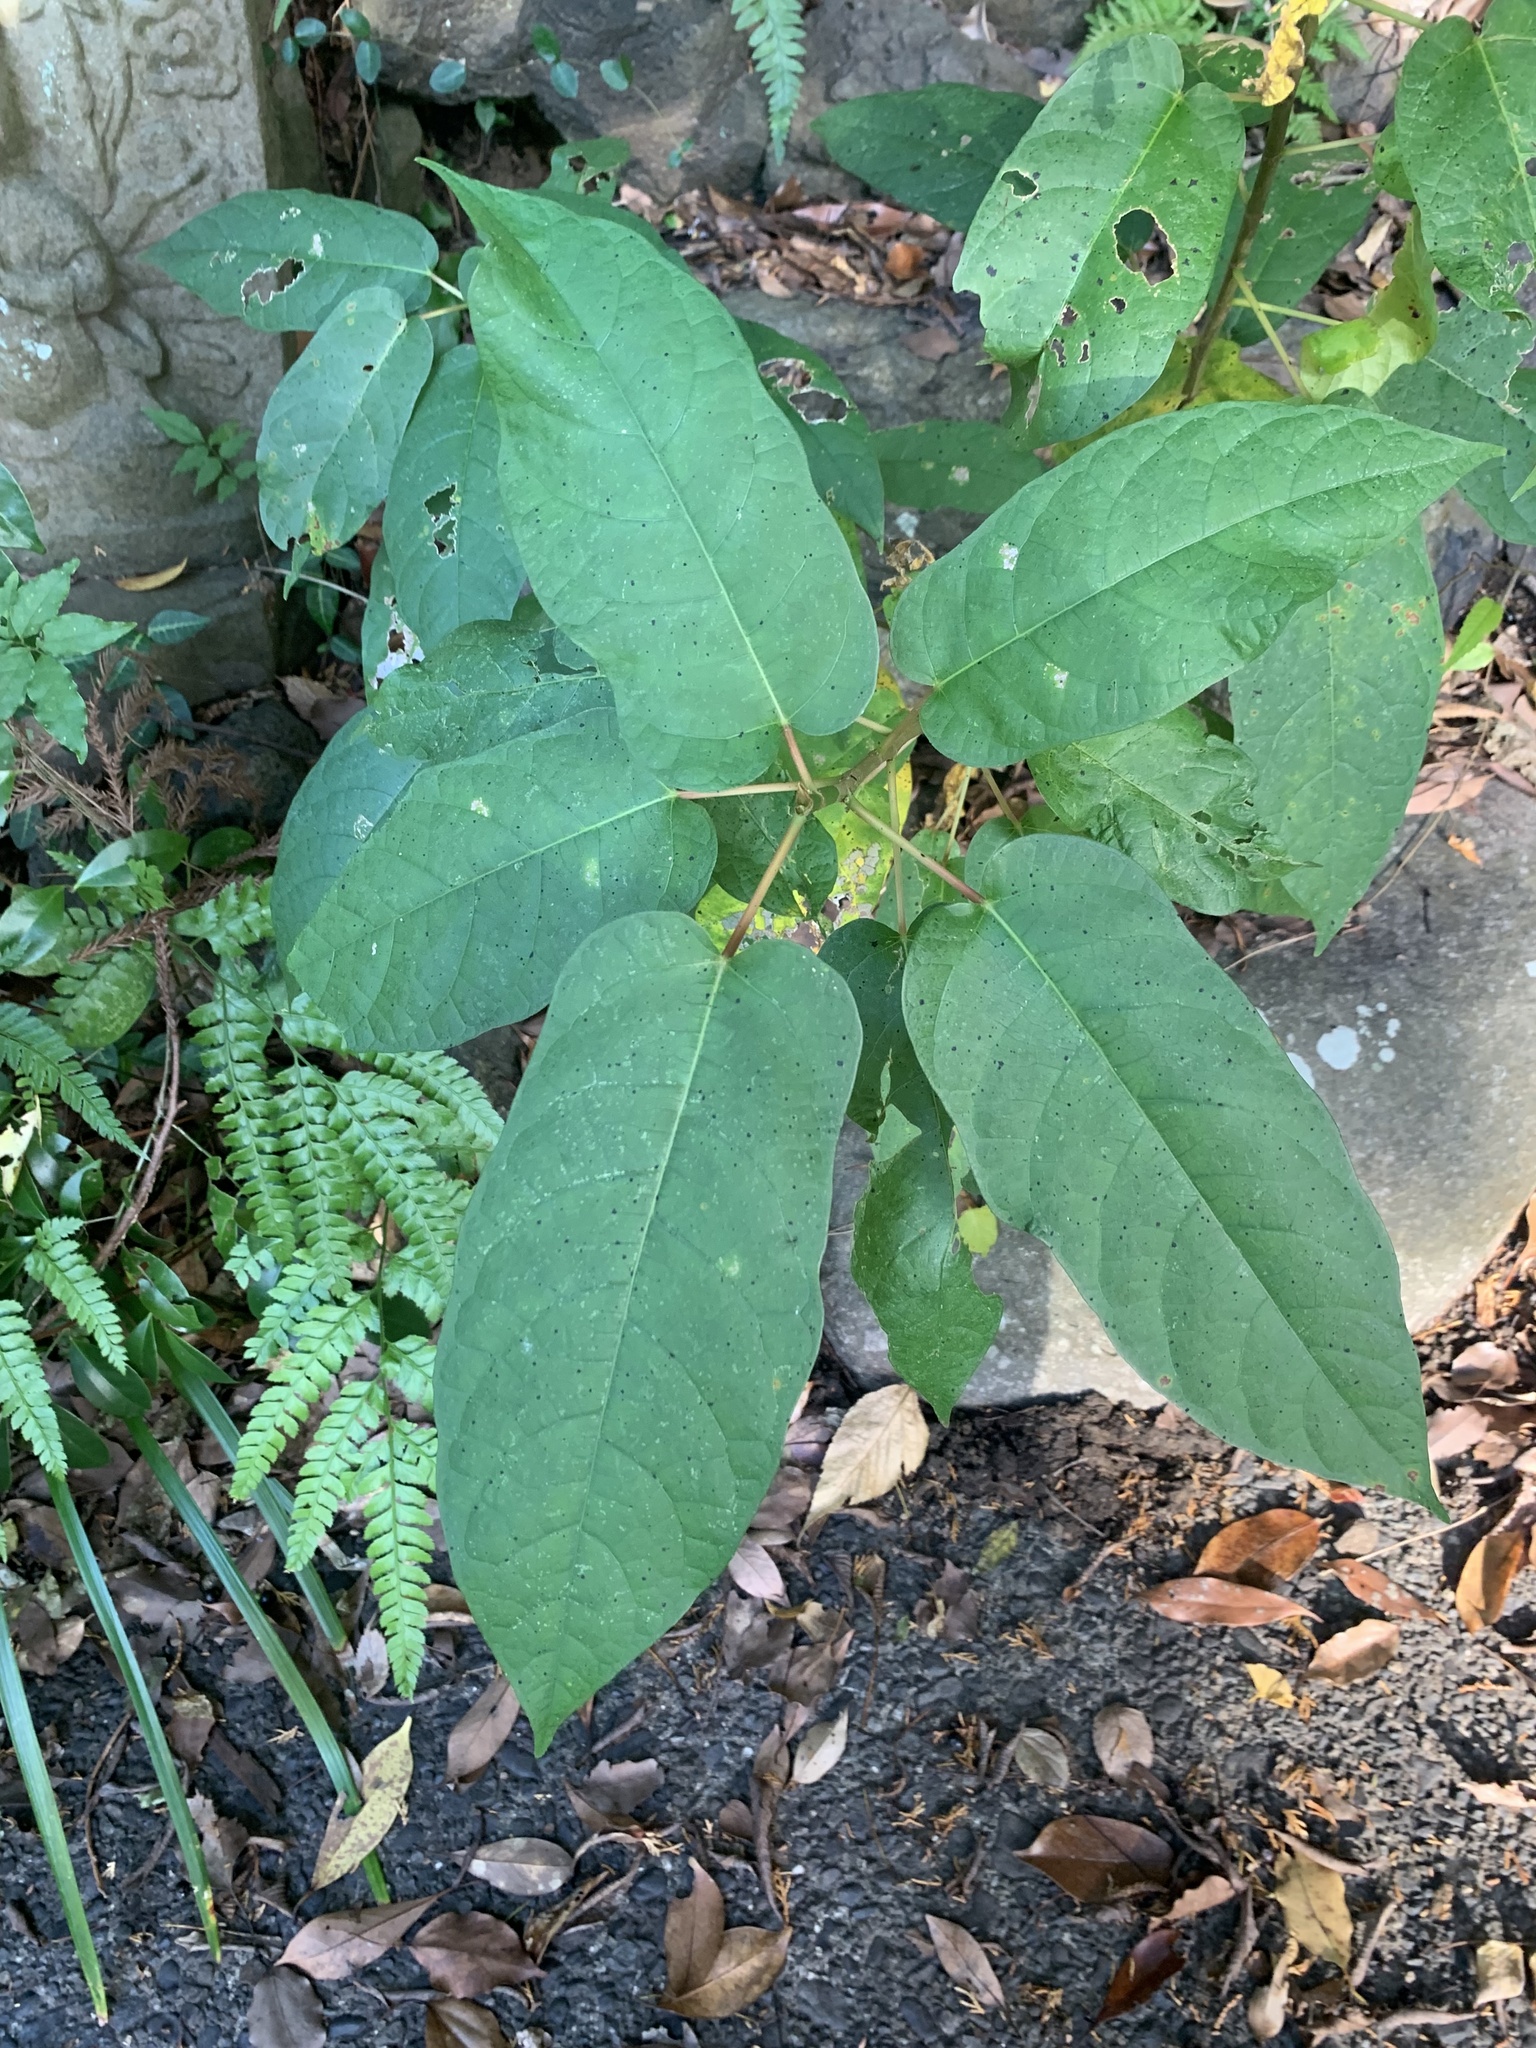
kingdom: Plantae
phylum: Tracheophyta
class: Magnoliopsida
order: Rosales
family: Moraceae
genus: Ficus
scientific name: Ficus erecta
